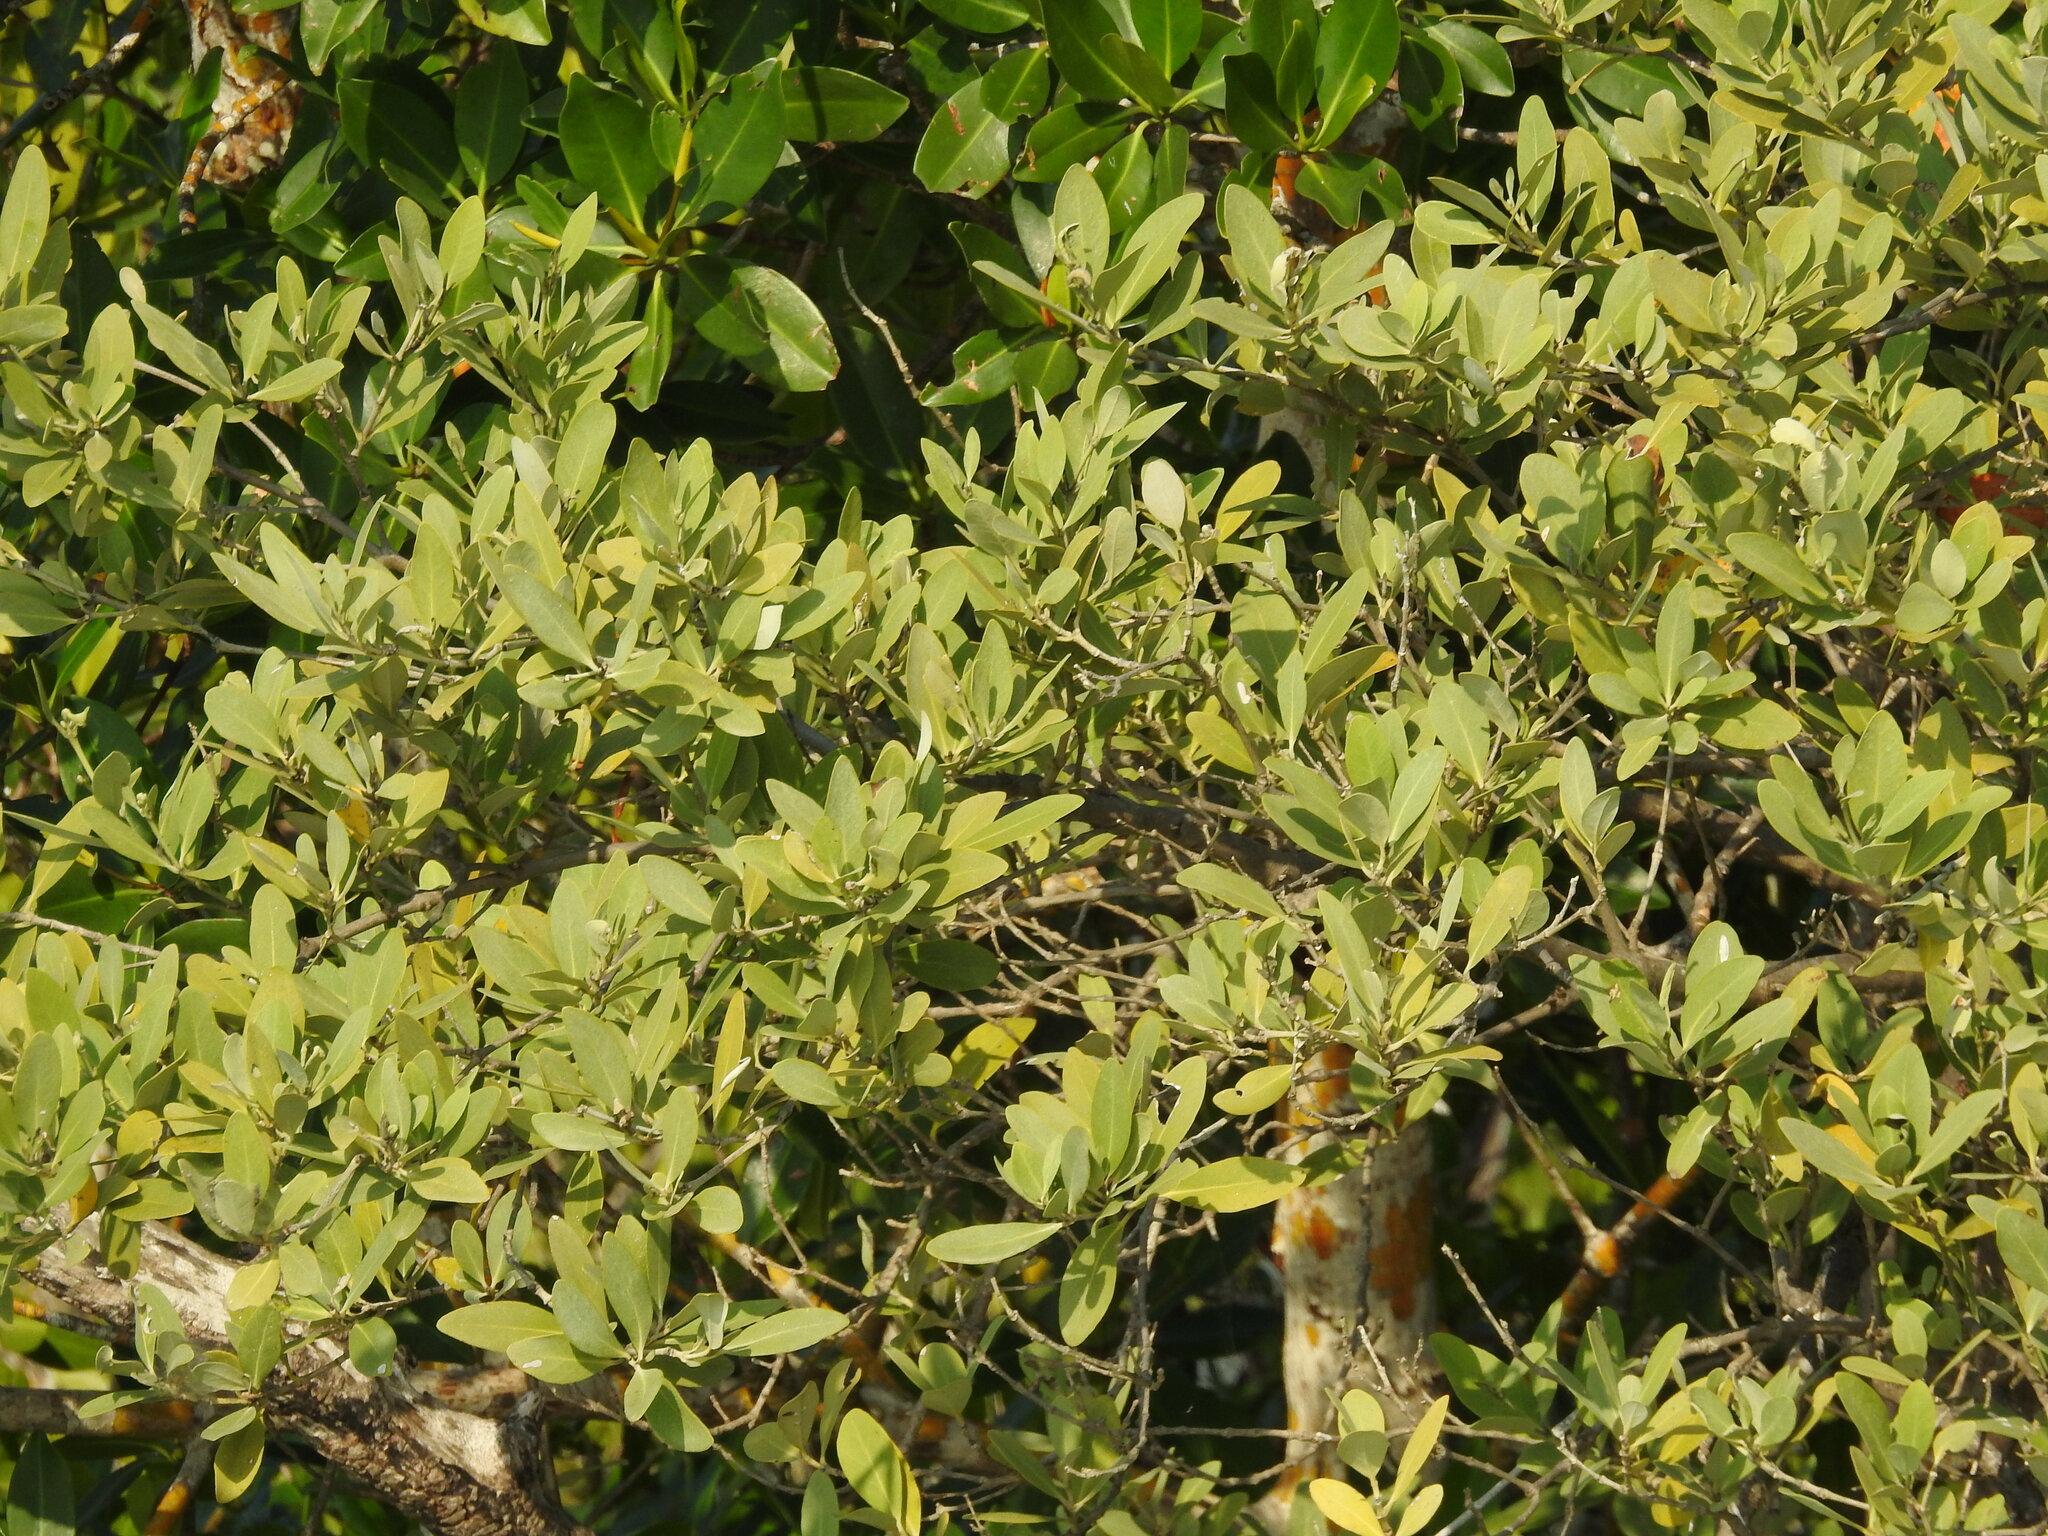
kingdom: Plantae
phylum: Tracheophyta
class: Magnoliopsida
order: Lamiales
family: Acanthaceae
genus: Avicennia
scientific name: Avicennia germinans
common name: Black mangrove
